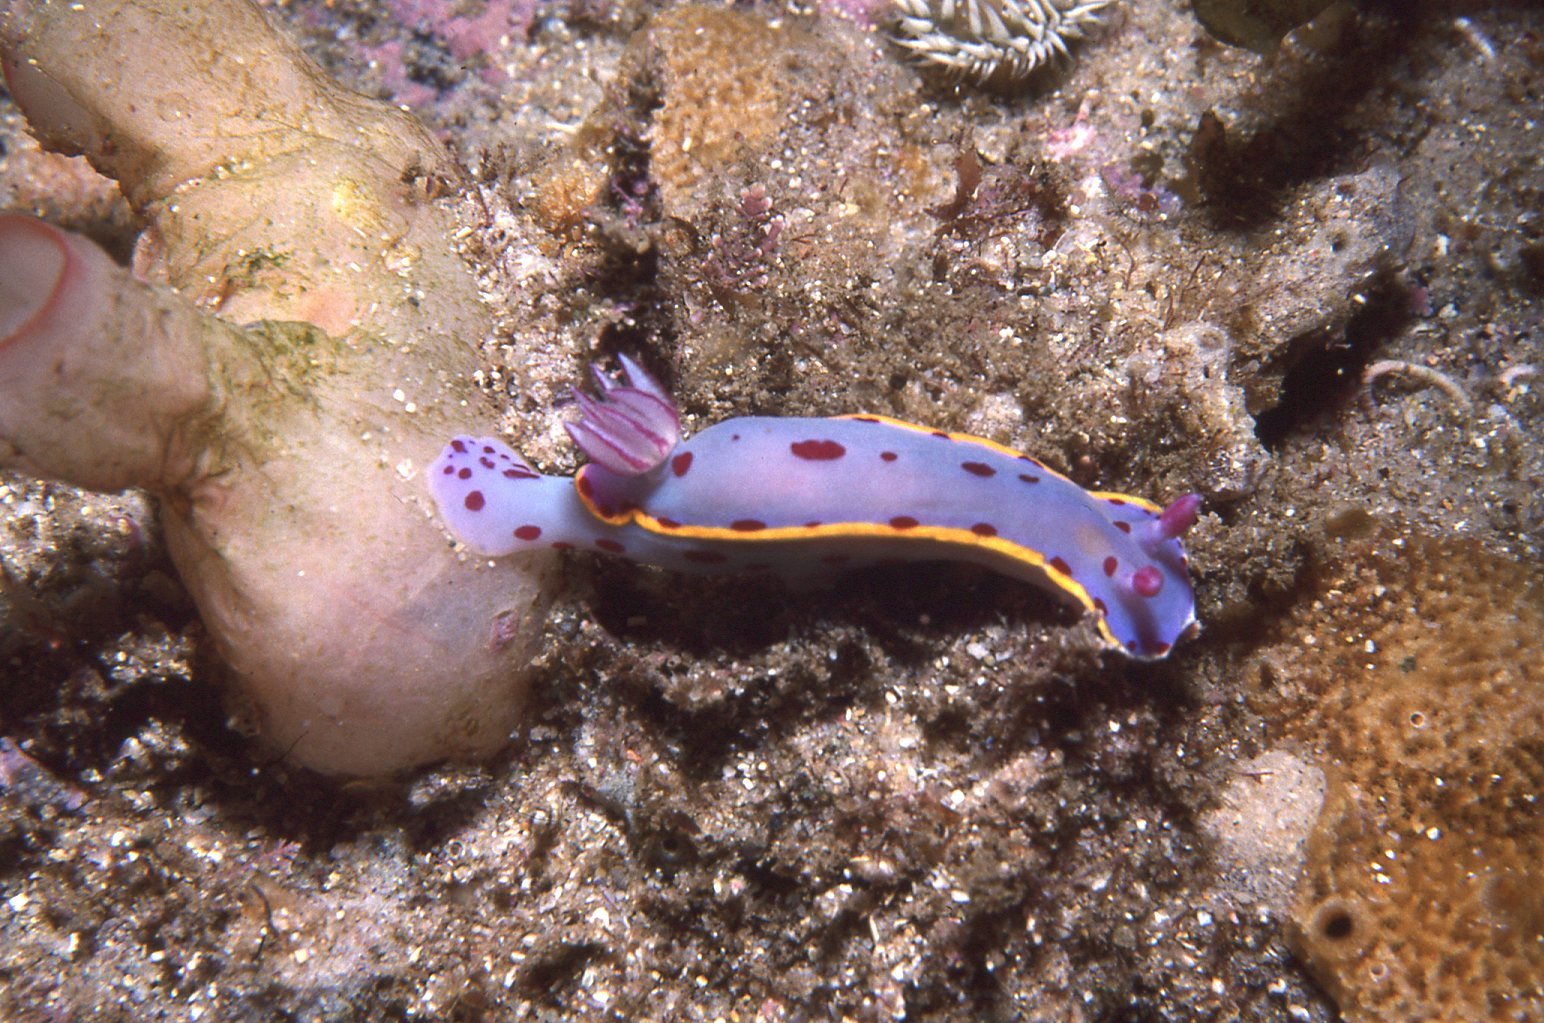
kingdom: Animalia
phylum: Mollusca
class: Gastropoda
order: Nudibranchia
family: Chromodorididae
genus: Hypselodoris
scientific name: Hypselodoris bennetti
